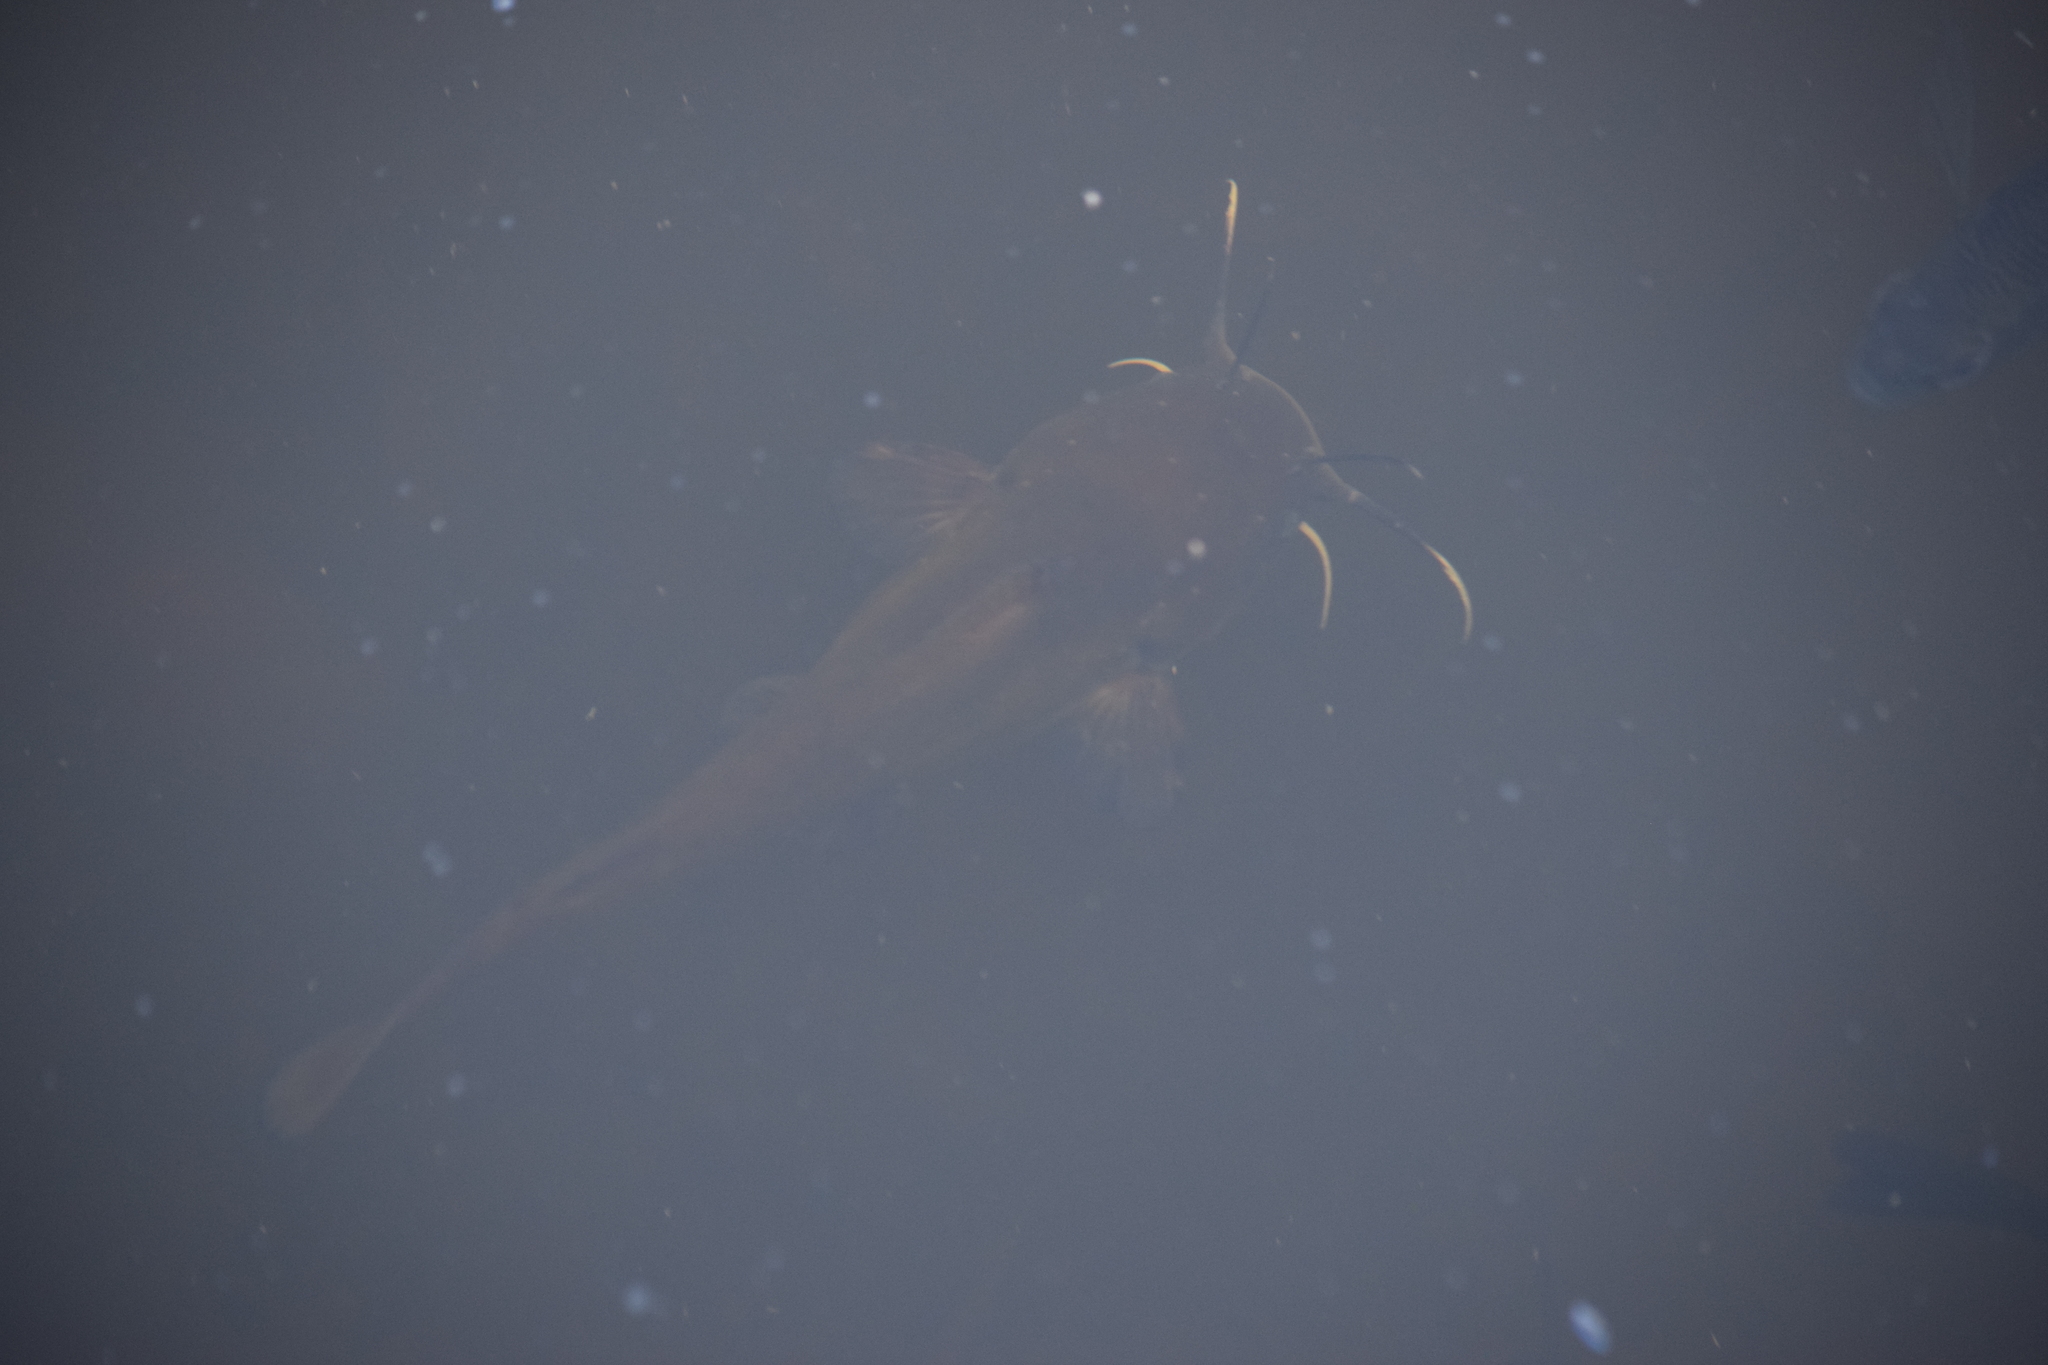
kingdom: Animalia
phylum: Chordata
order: Siluriformes
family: Ictaluridae
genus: Ameiurus
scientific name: Ameiurus natalis
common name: Yellow bullhead
